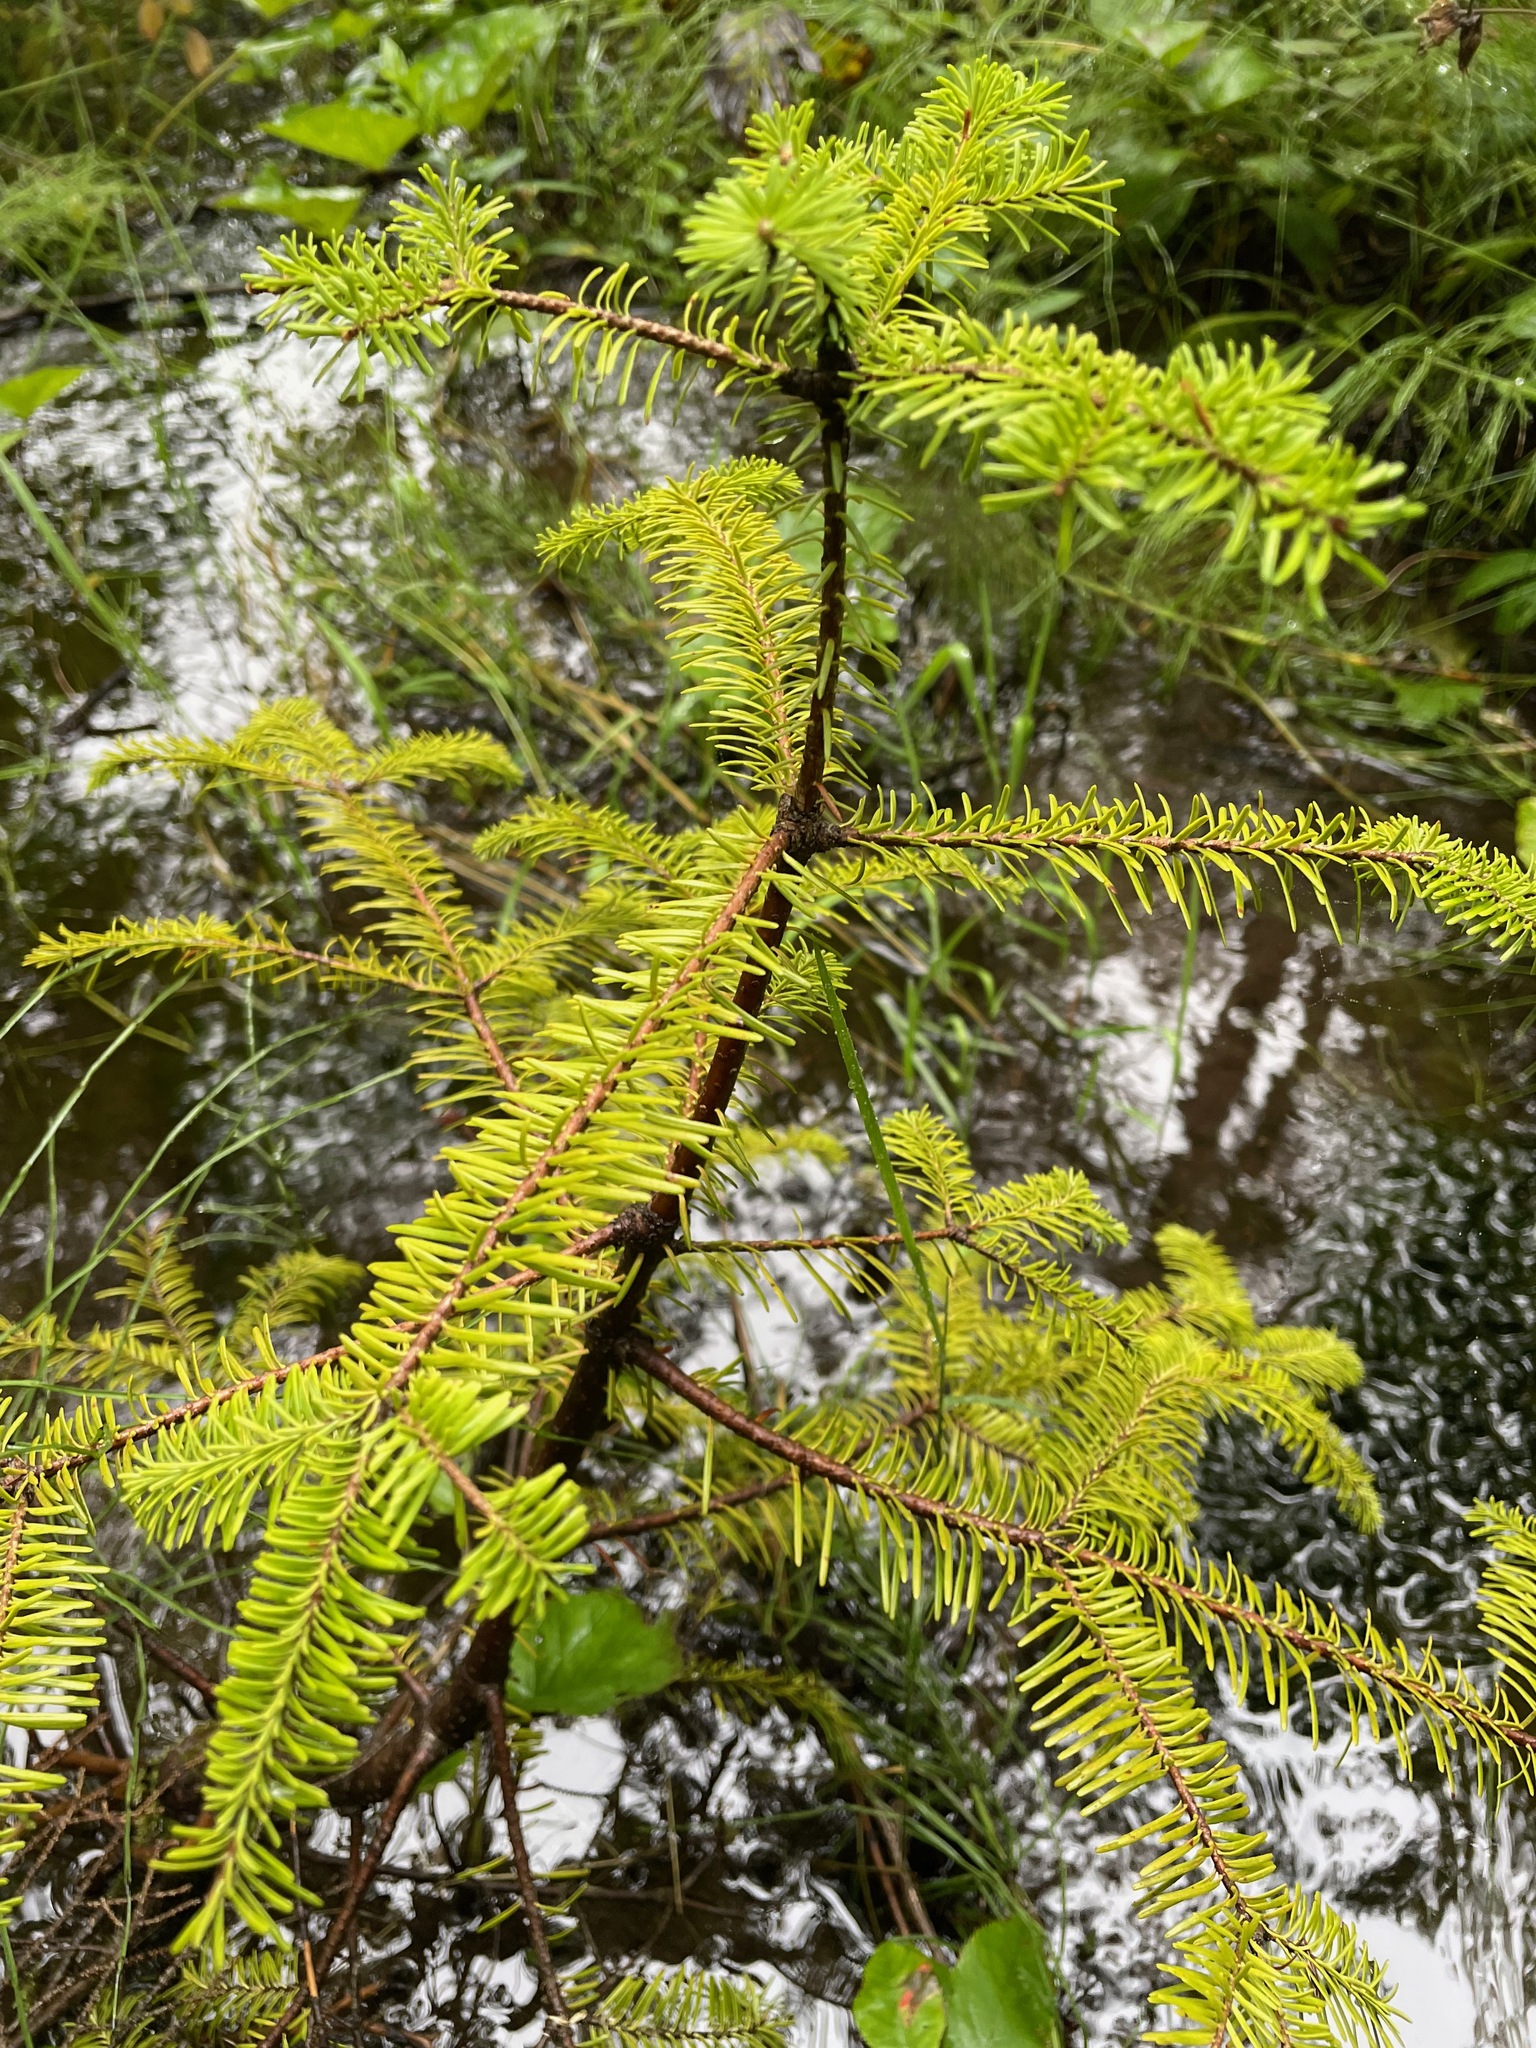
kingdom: Plantae
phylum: Tracheophyta
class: Pinopsida
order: Pinales
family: Pinaceae
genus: Abies
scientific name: Abies balsamea
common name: Balsam fir
